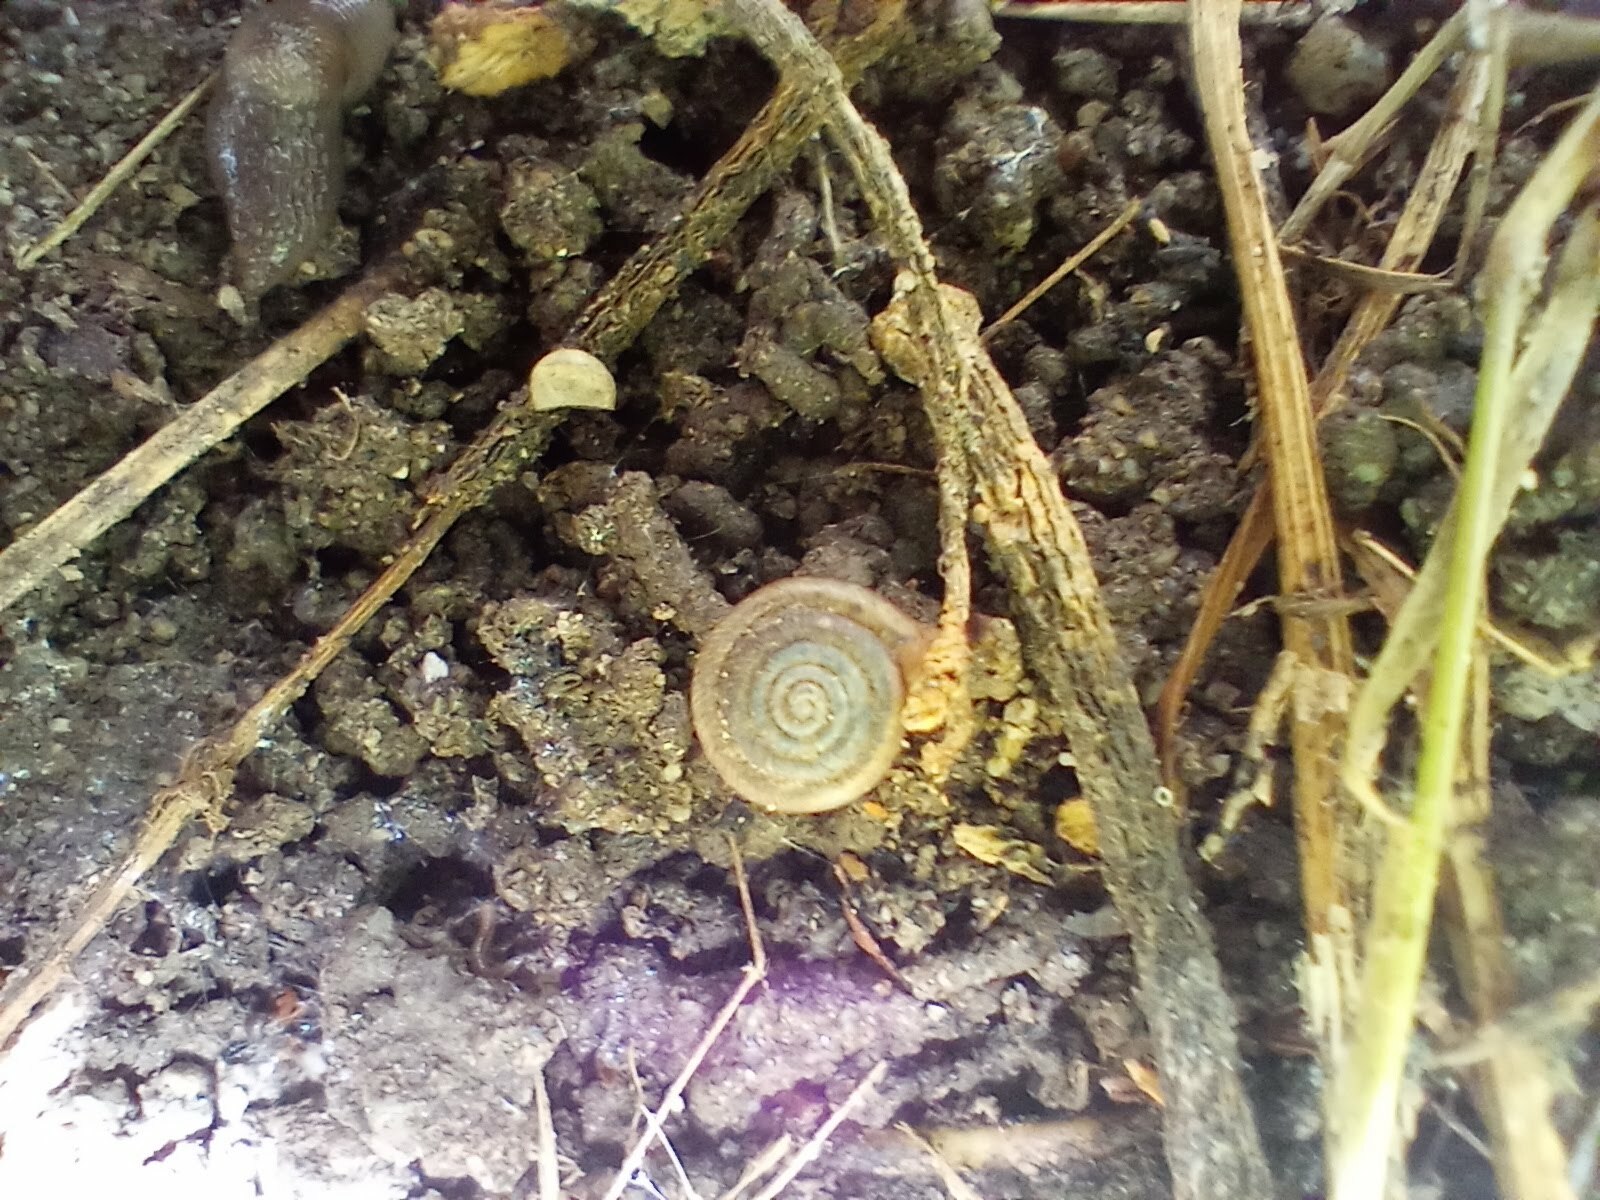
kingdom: Animalia
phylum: Mollusca
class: Gastropoda
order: Stylommatophora
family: Polygyridae
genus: Polygyra
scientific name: Polygyra cereolus
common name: Southern flatcone snail
